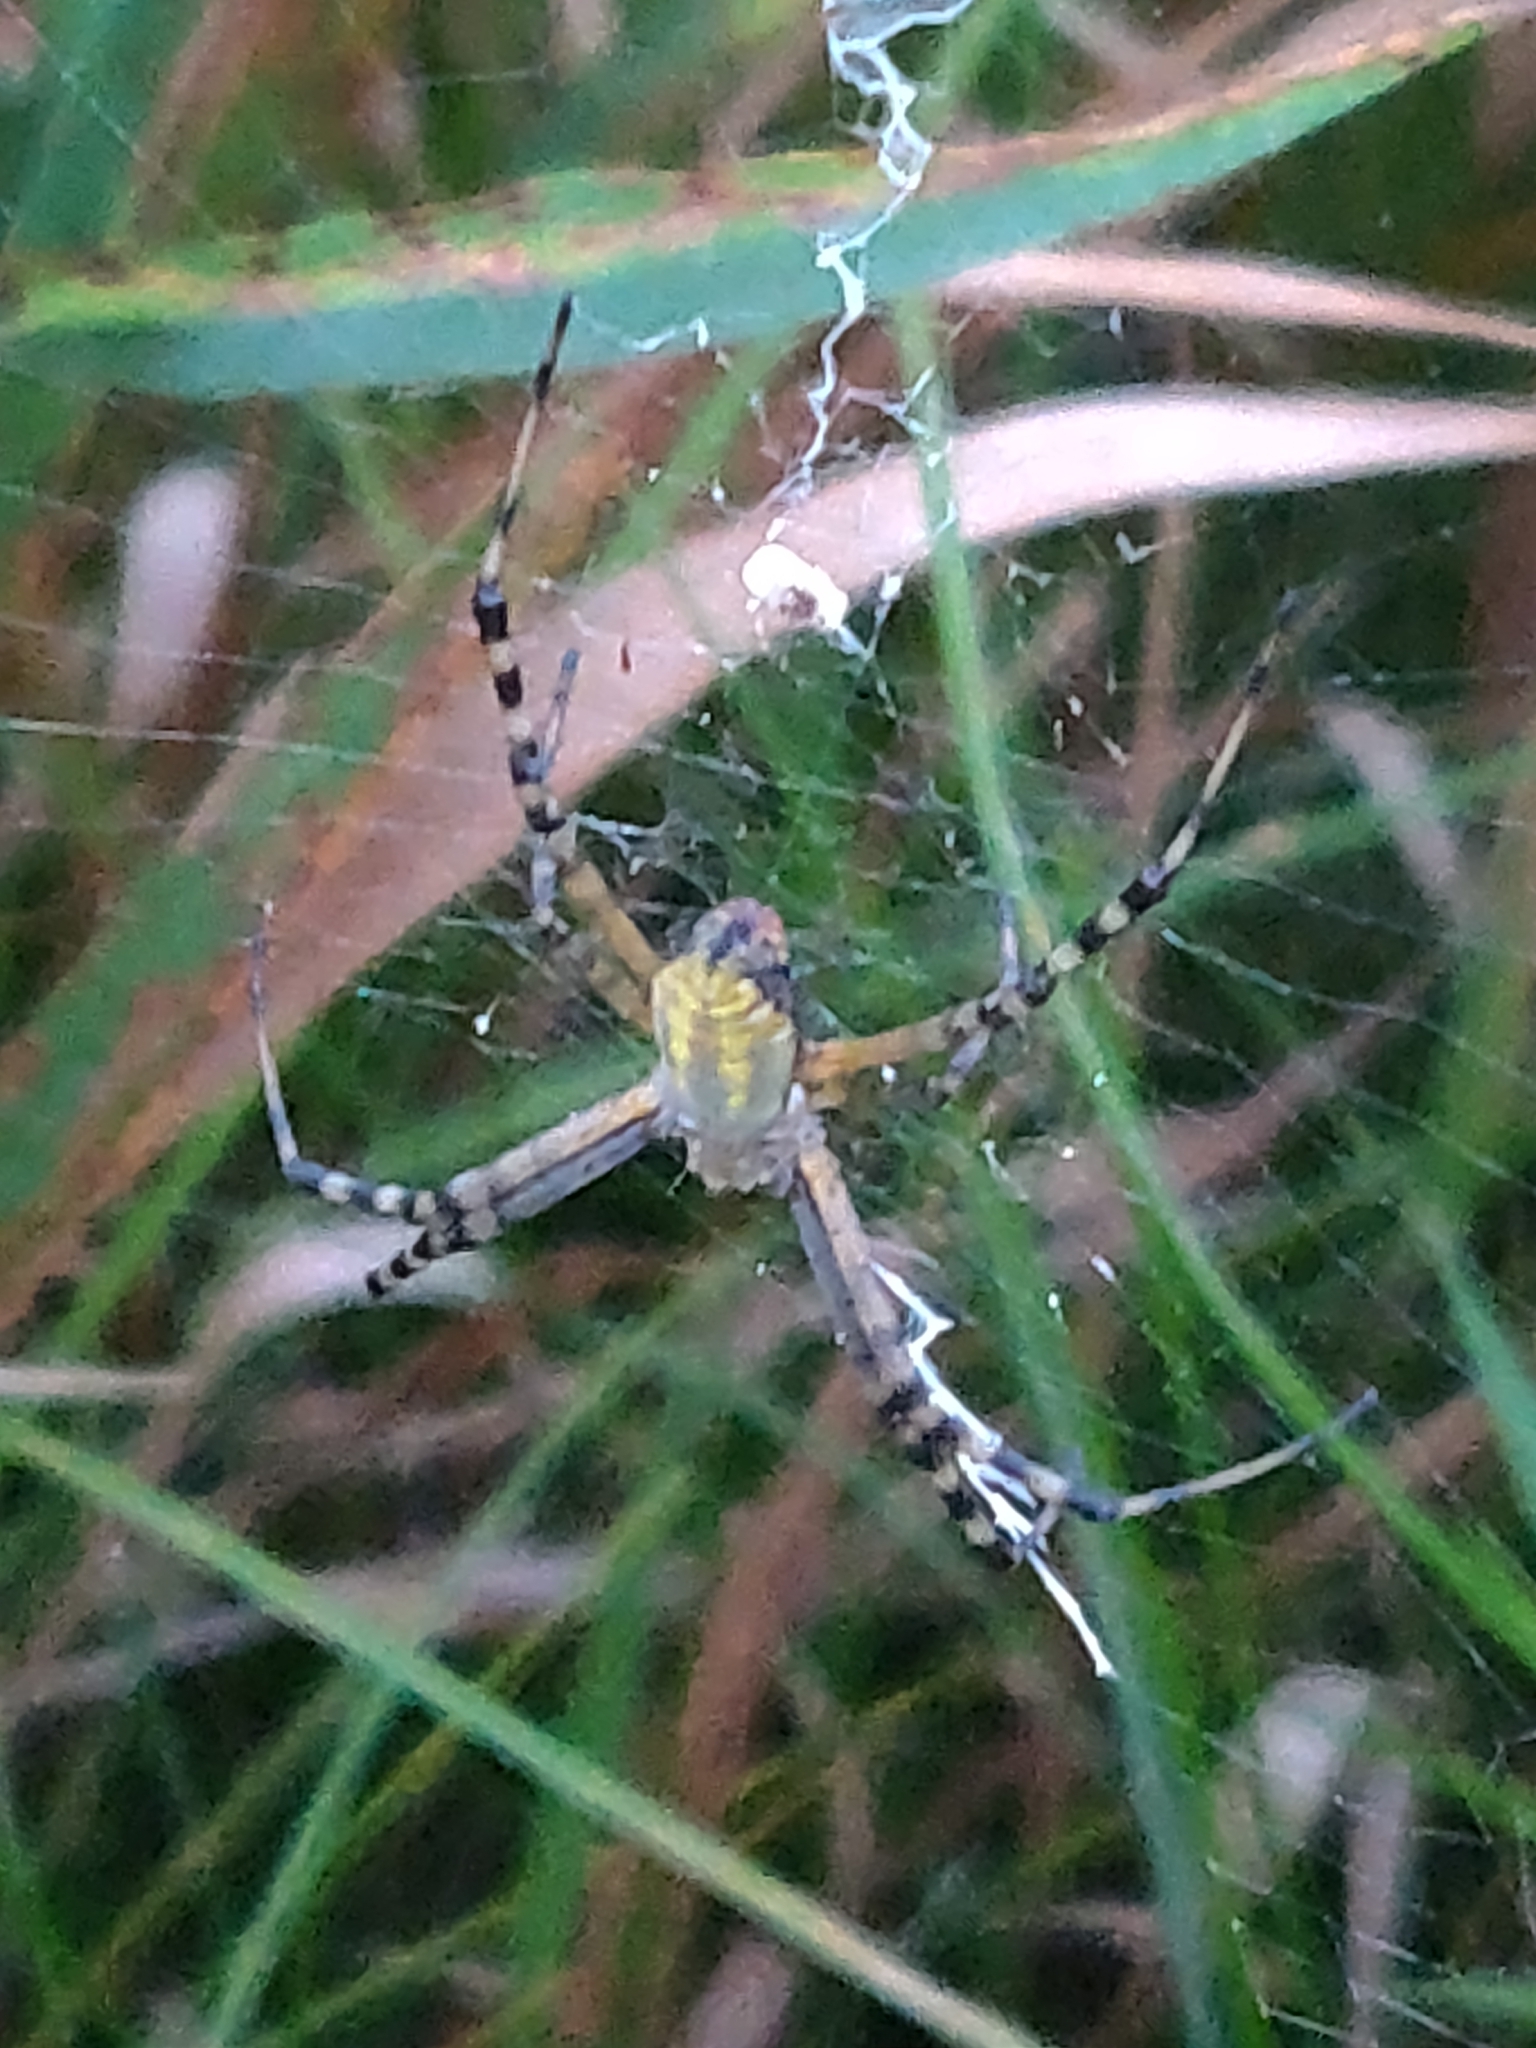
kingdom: Animalia
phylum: Arthropoda
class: Arachnida
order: Araneae
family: Araneidae
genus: Argiope
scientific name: Argiope trifasciata
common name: Banded garden spider
